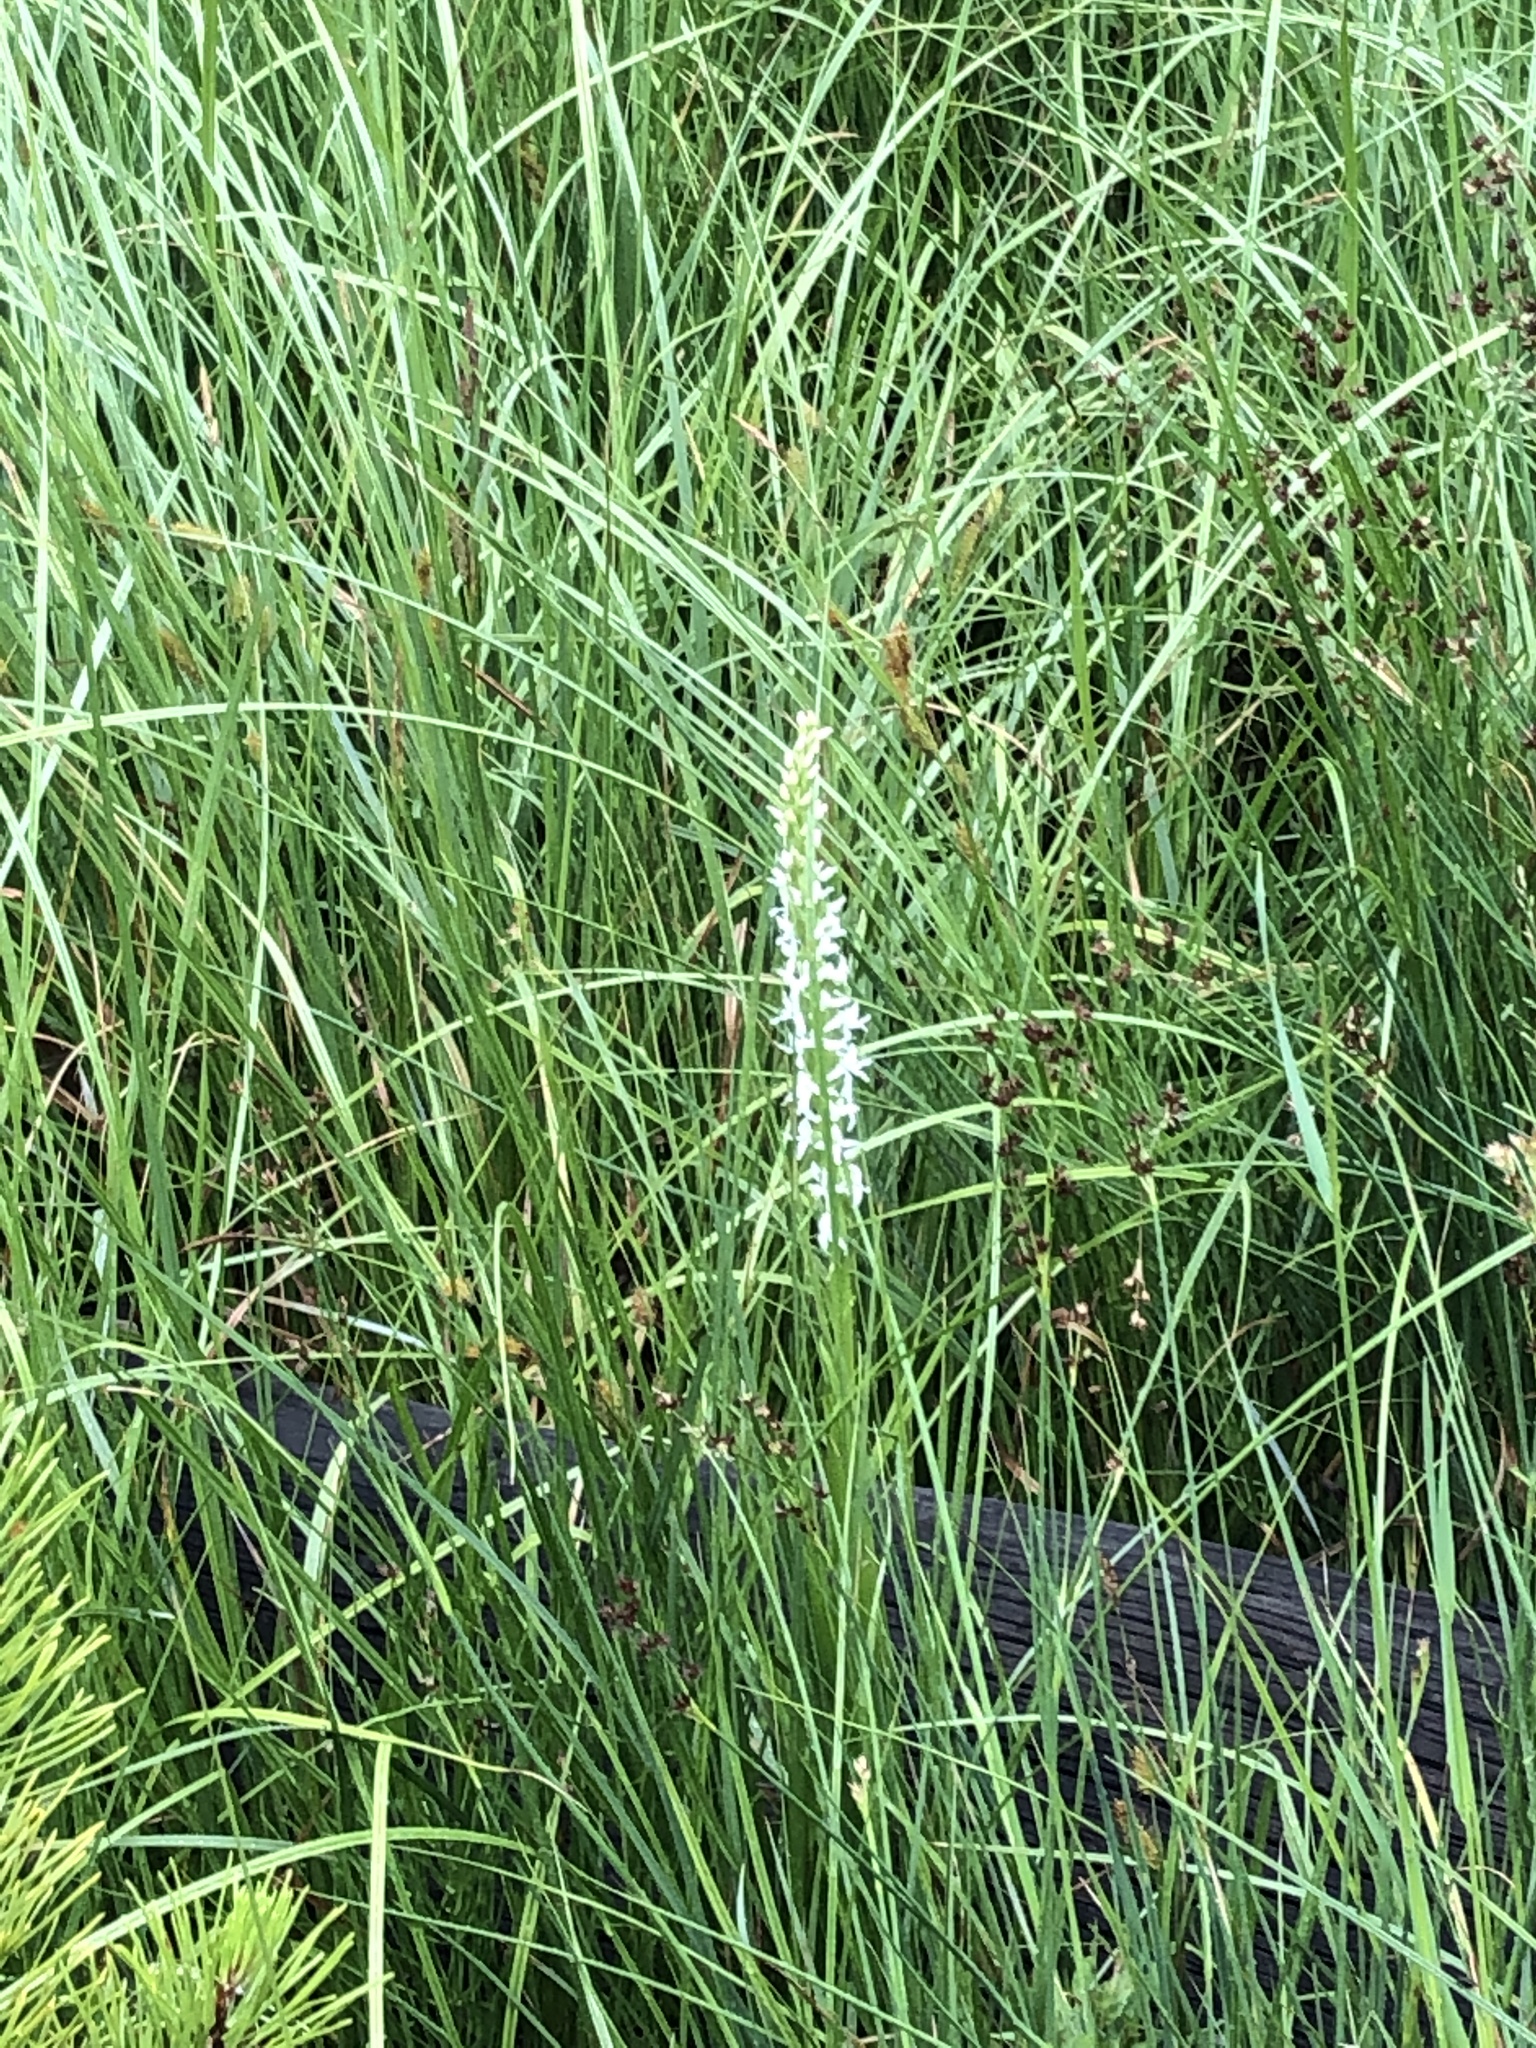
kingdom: Plantae
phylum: Tracheophyta
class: Liliopsida
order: Asparagales
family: Orchidaceae
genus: Platanthera
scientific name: Platanthera dilatata
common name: Bog candles
